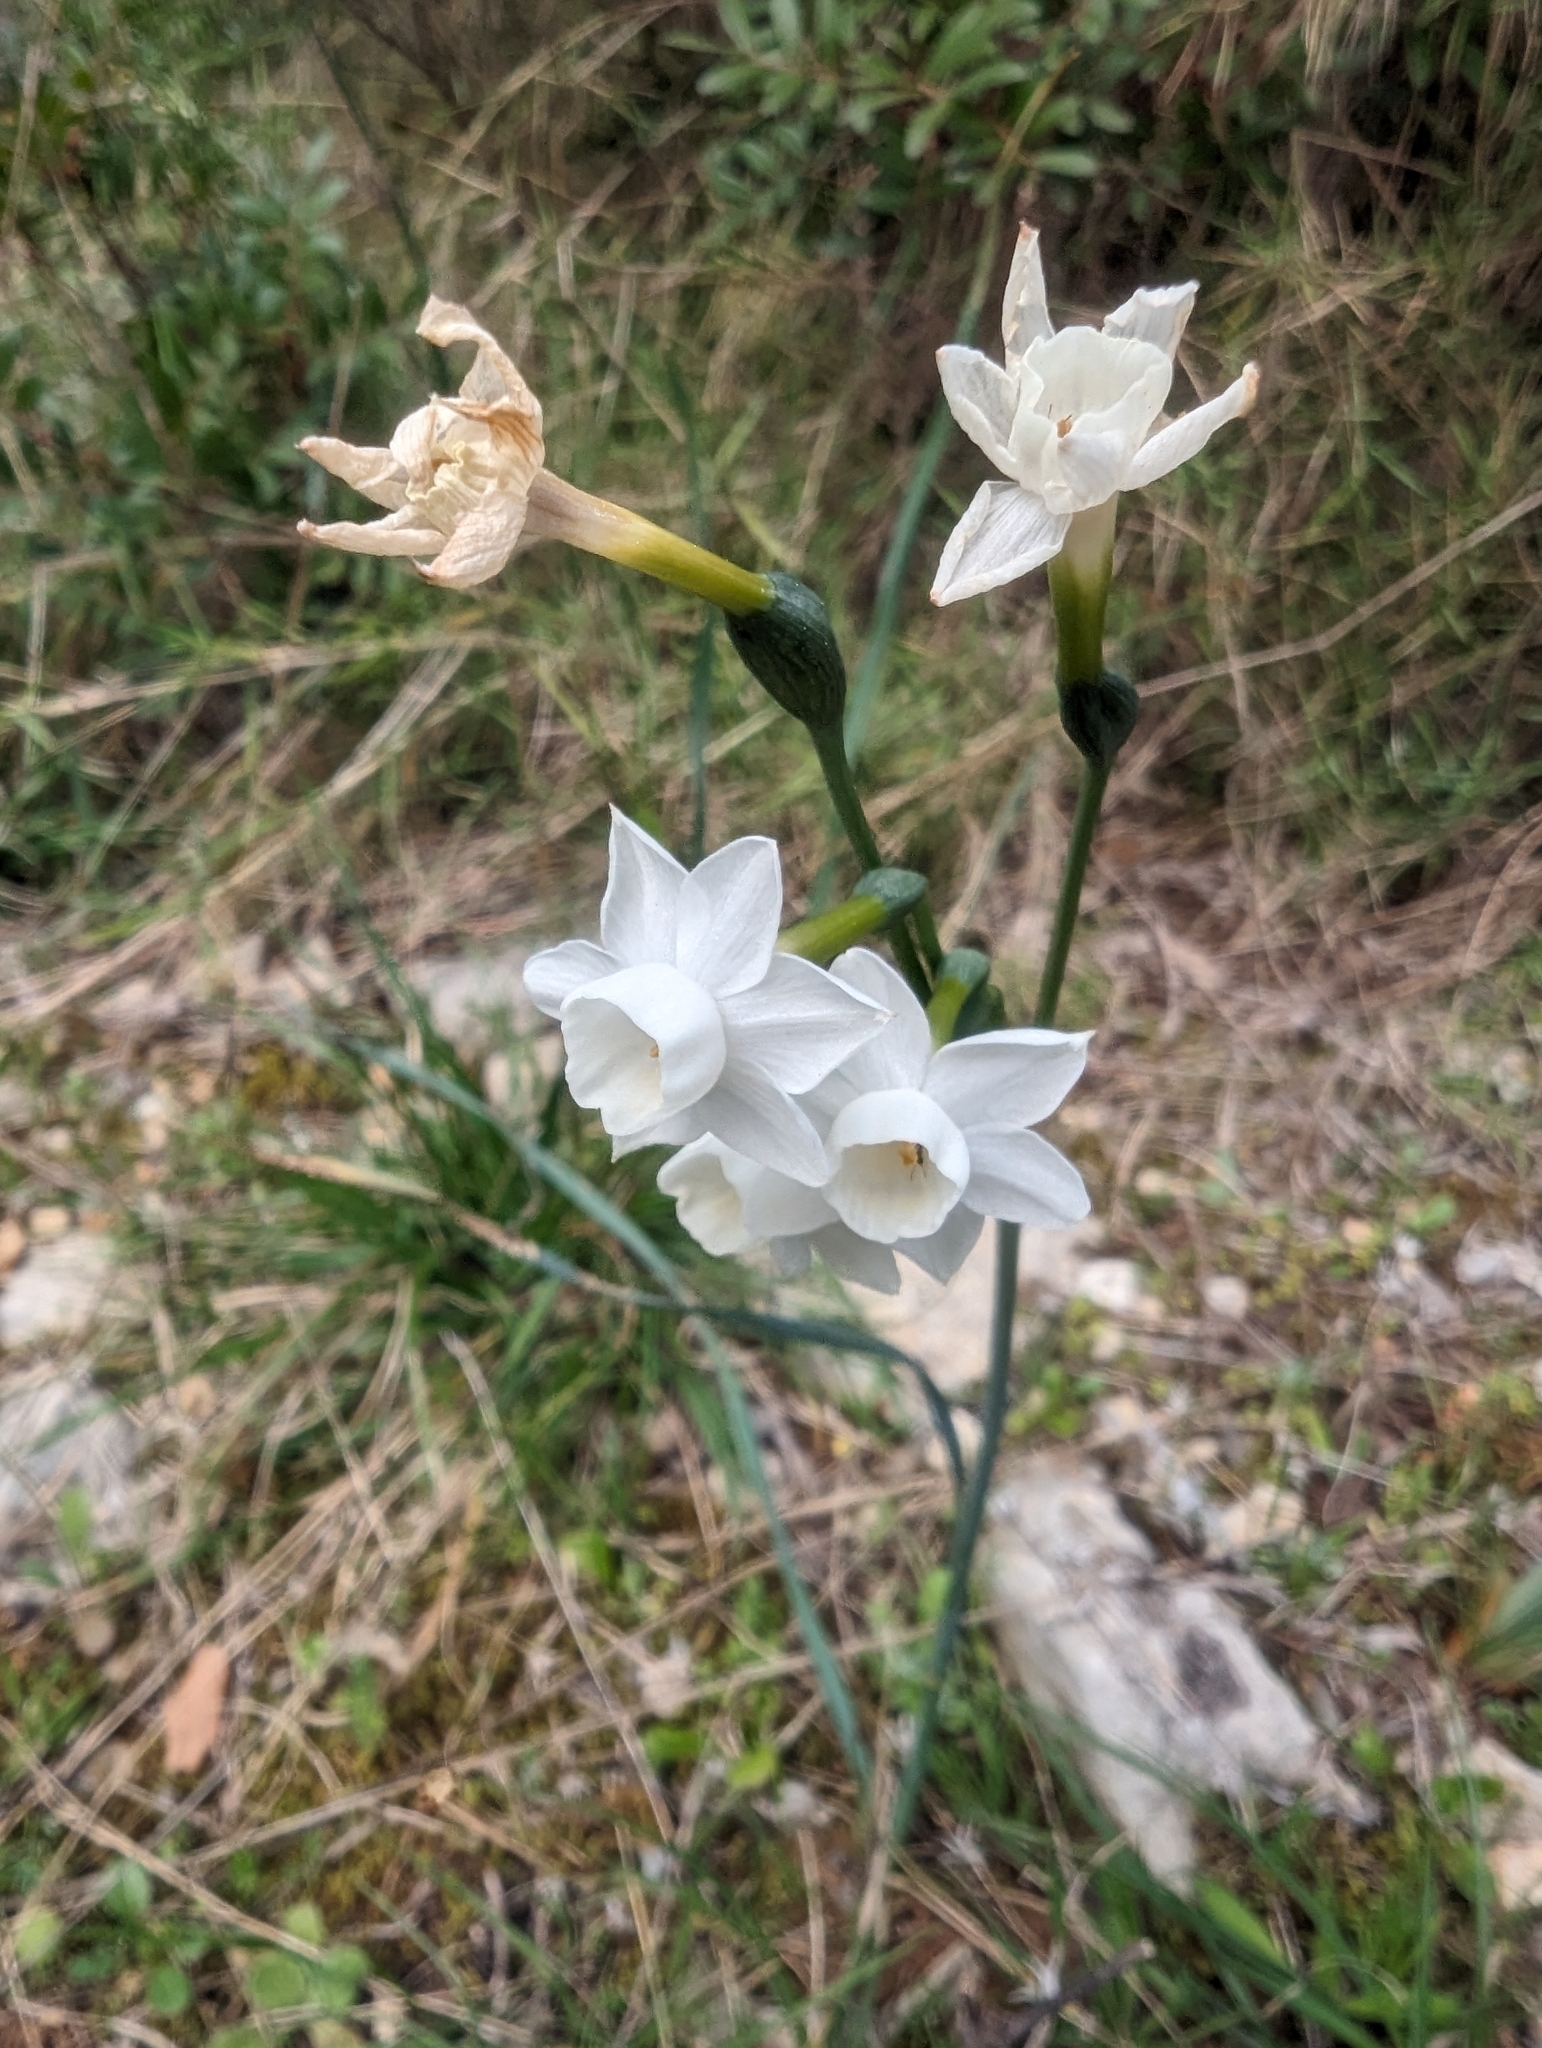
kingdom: Plantae
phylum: Tracheophyta
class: Liliopsida
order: Asparagales
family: Amaryllidaceae
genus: Narcissus
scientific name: Narcissus dubius
